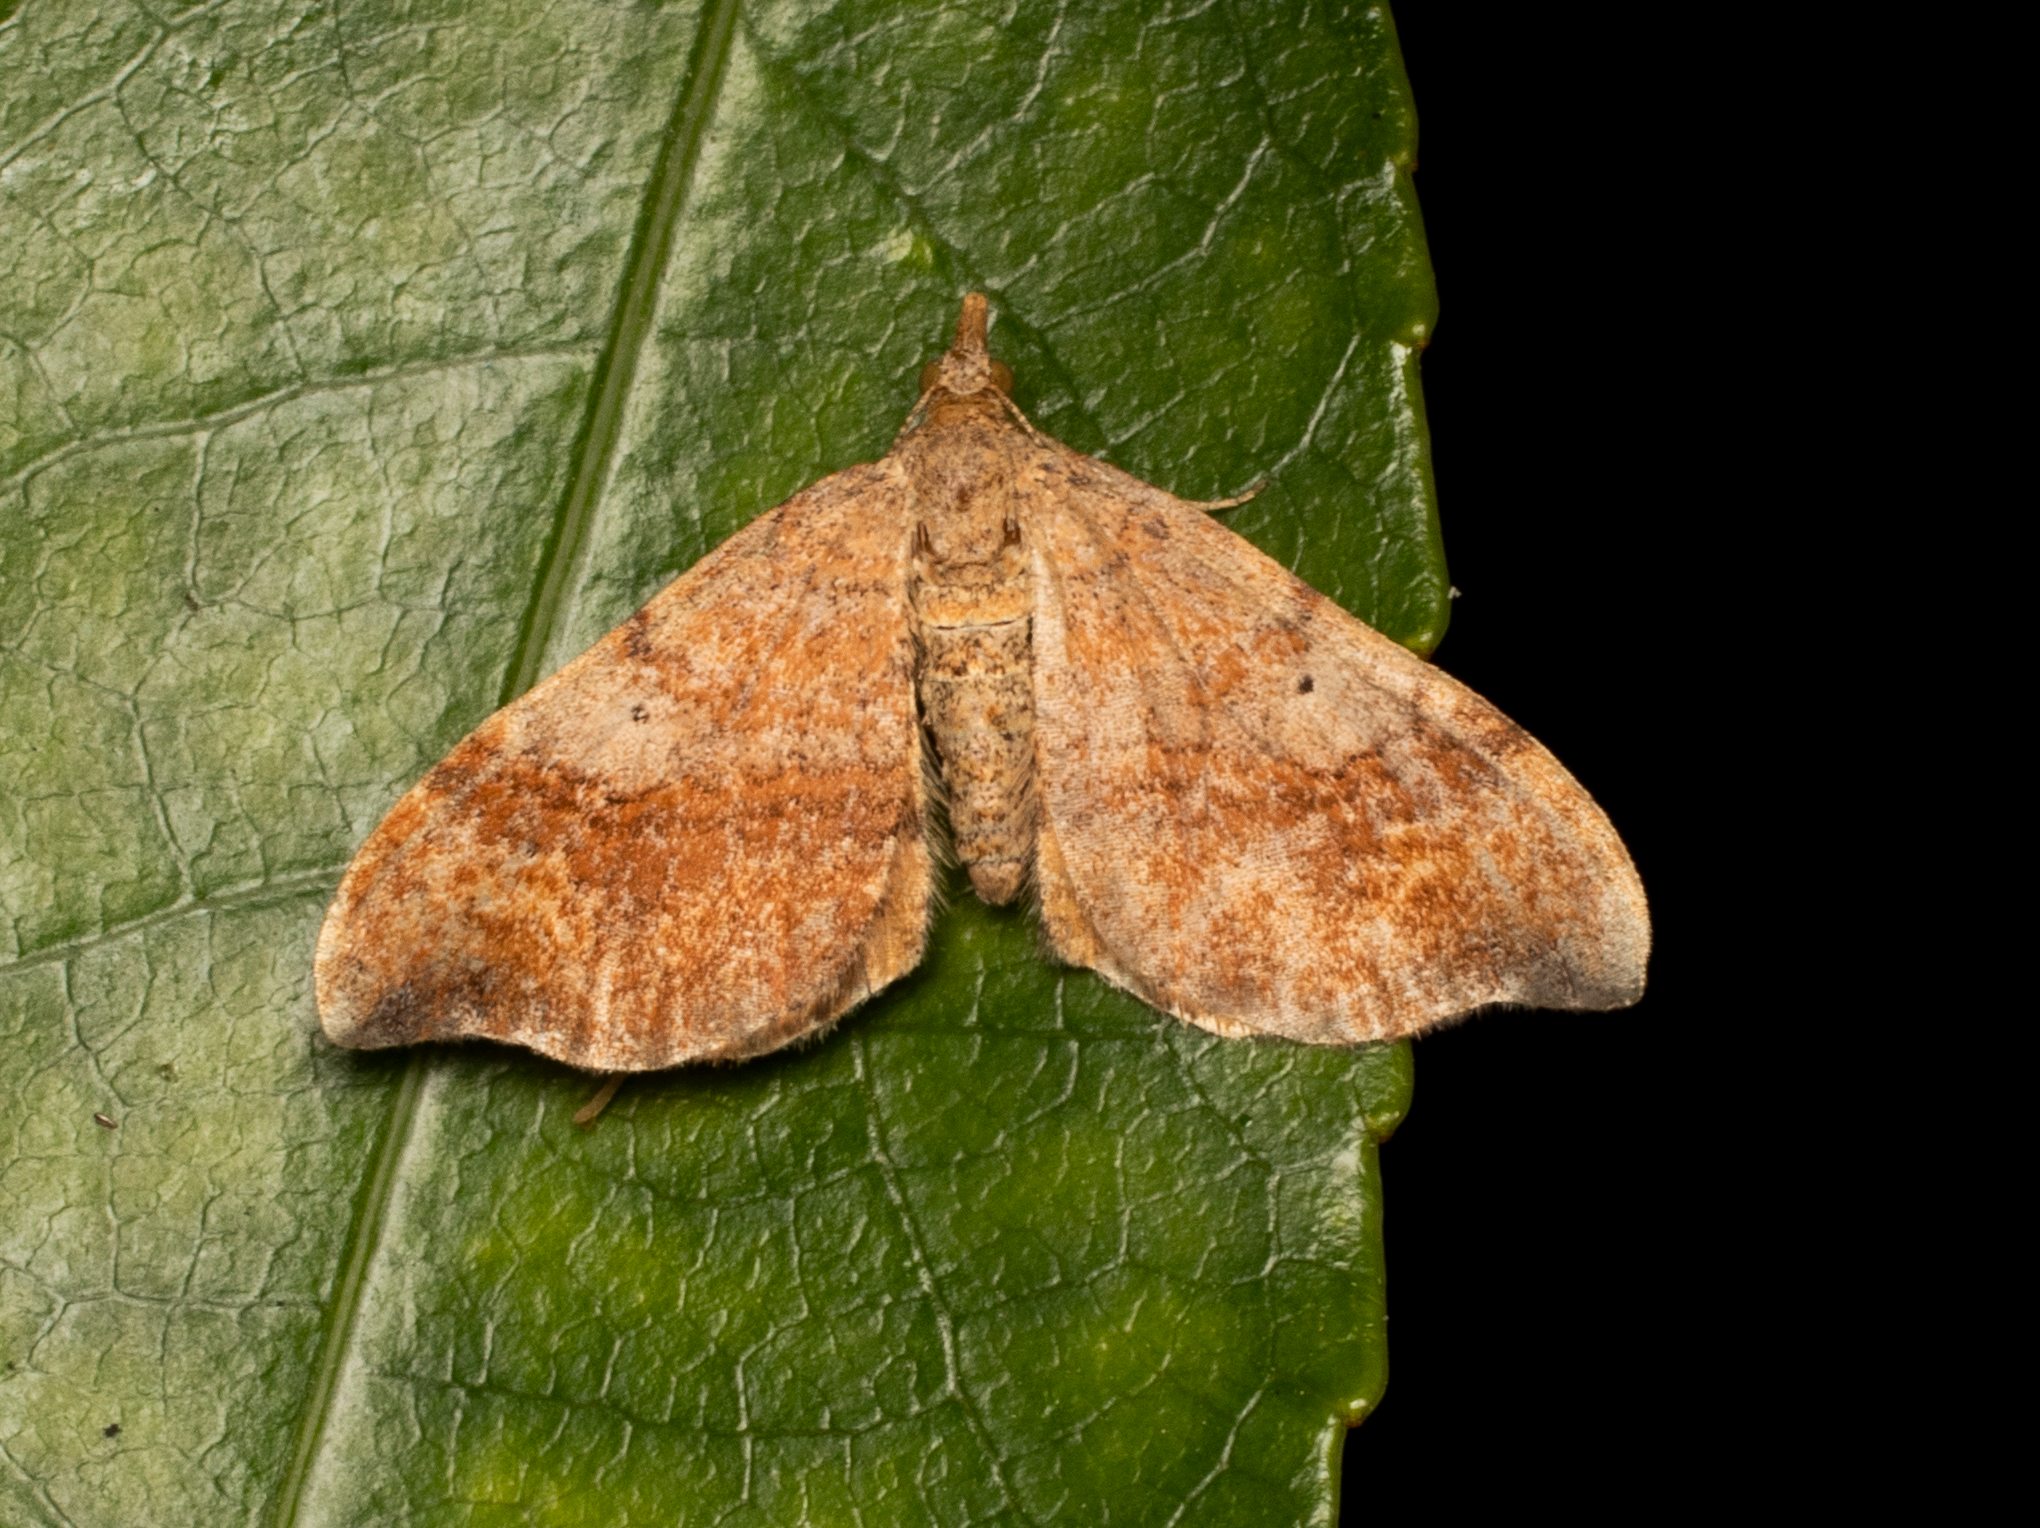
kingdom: Animalia
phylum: Arthropoda
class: Insecta
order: Lepidoptera
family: Geometridae
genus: Homodotis
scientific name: Homodotis megaspilata
